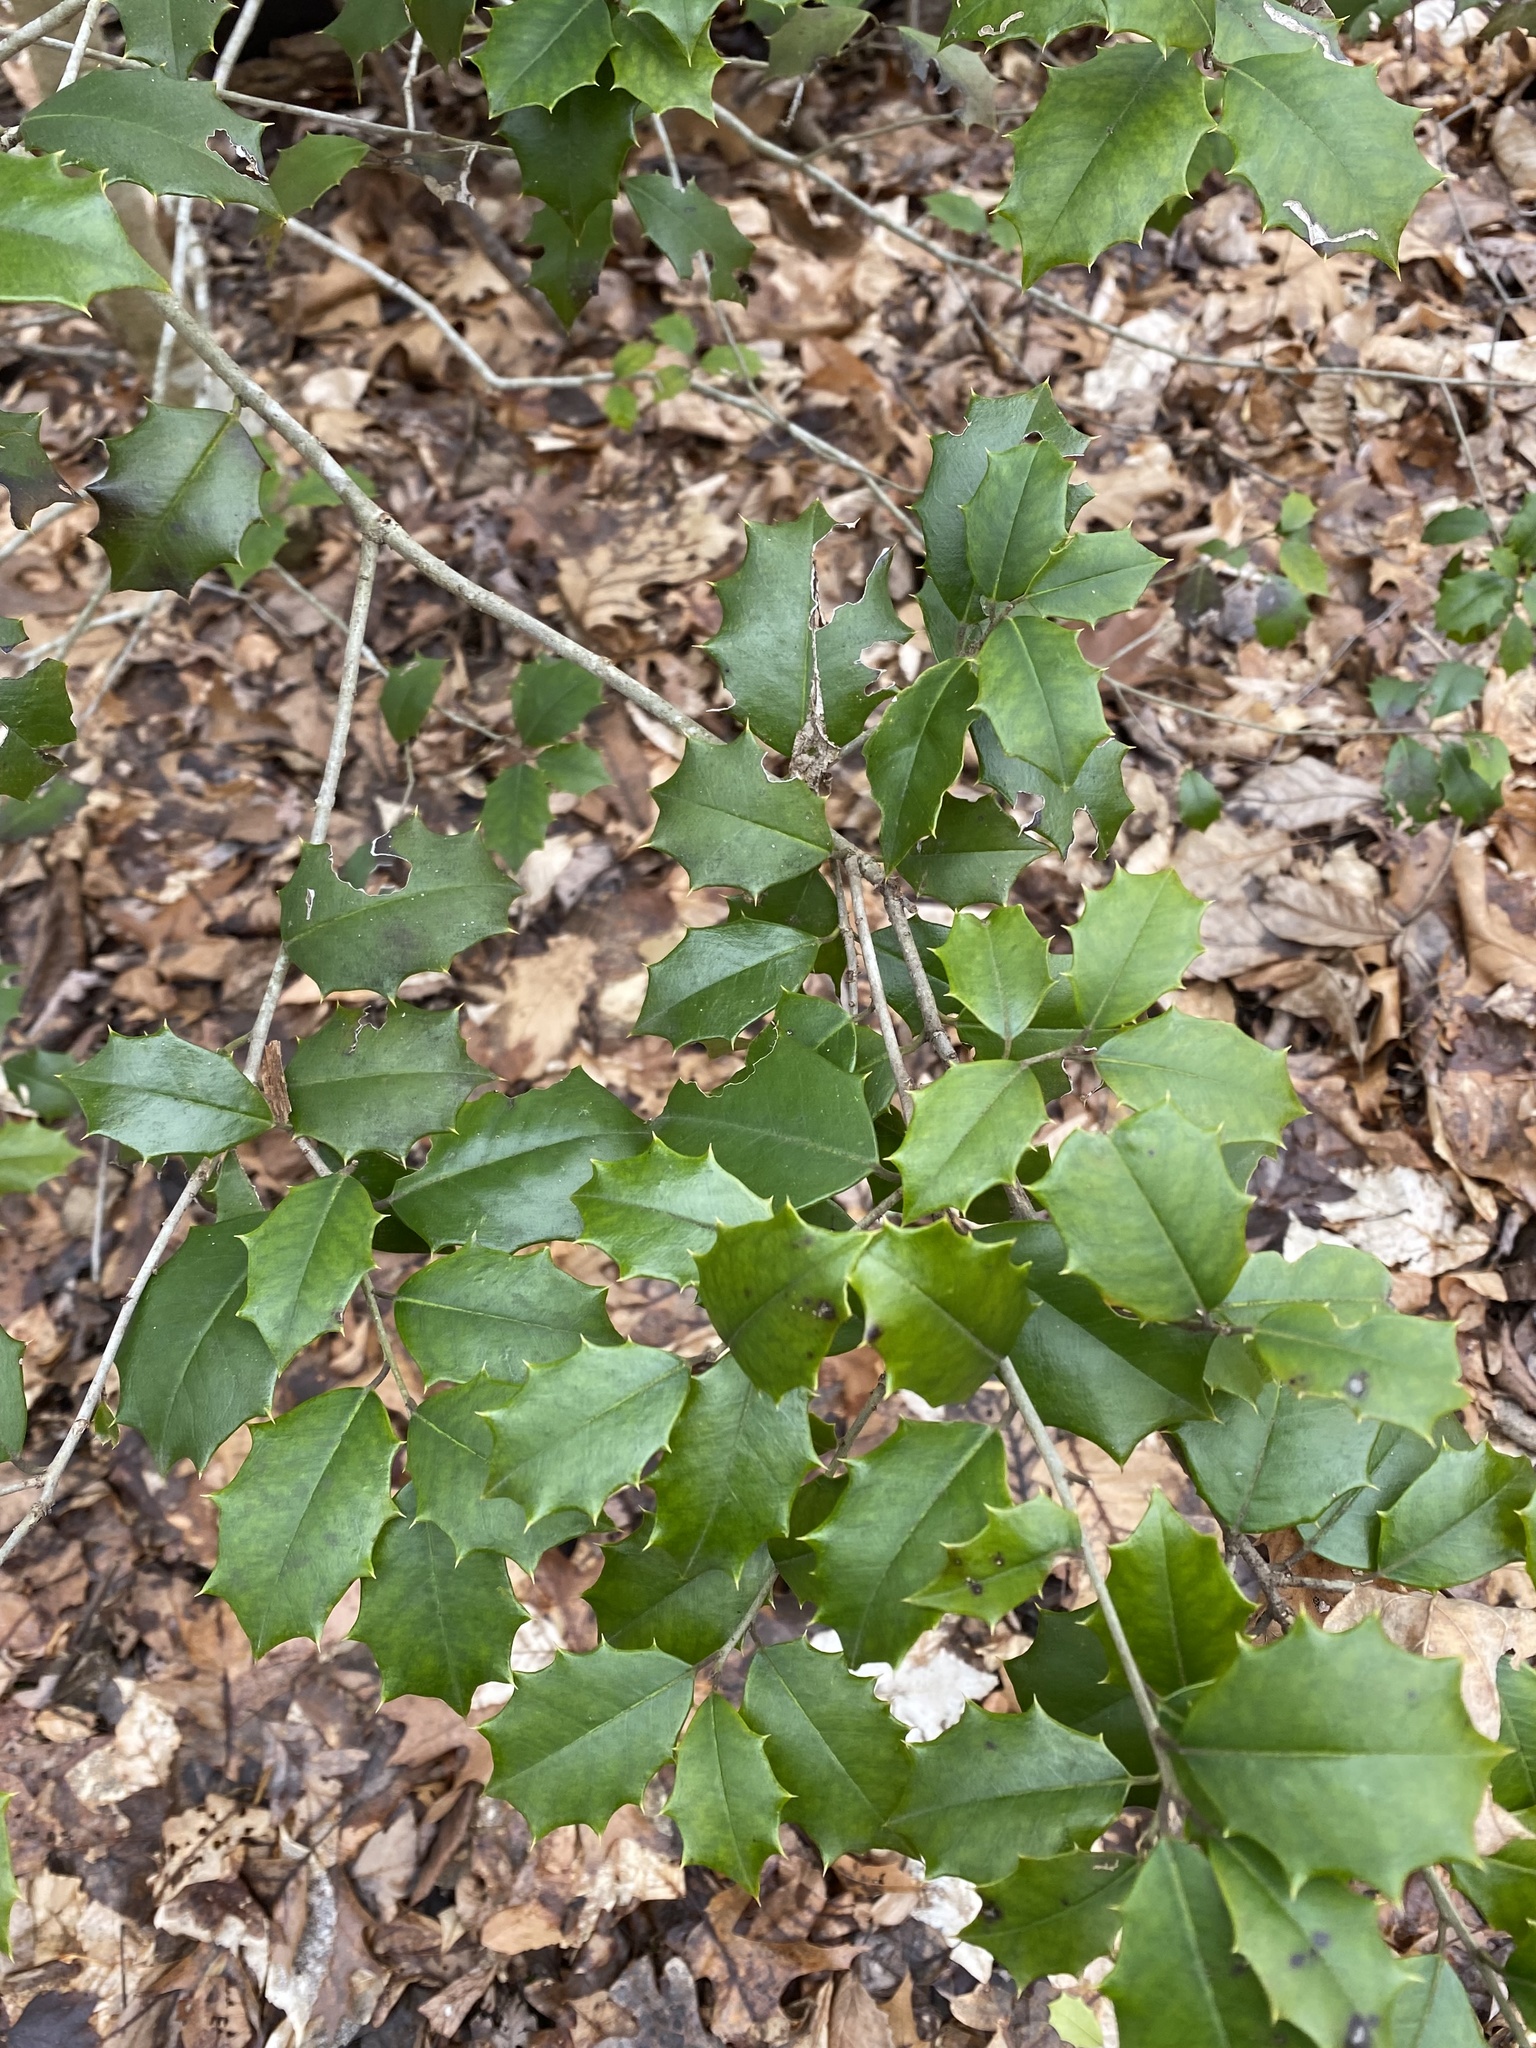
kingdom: Plantae
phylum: Tracheophyta
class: Magnoliopsida
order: Aquifoliales
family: Aquifoliaceae
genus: Ilex
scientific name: Ilex opaca
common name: American holly
